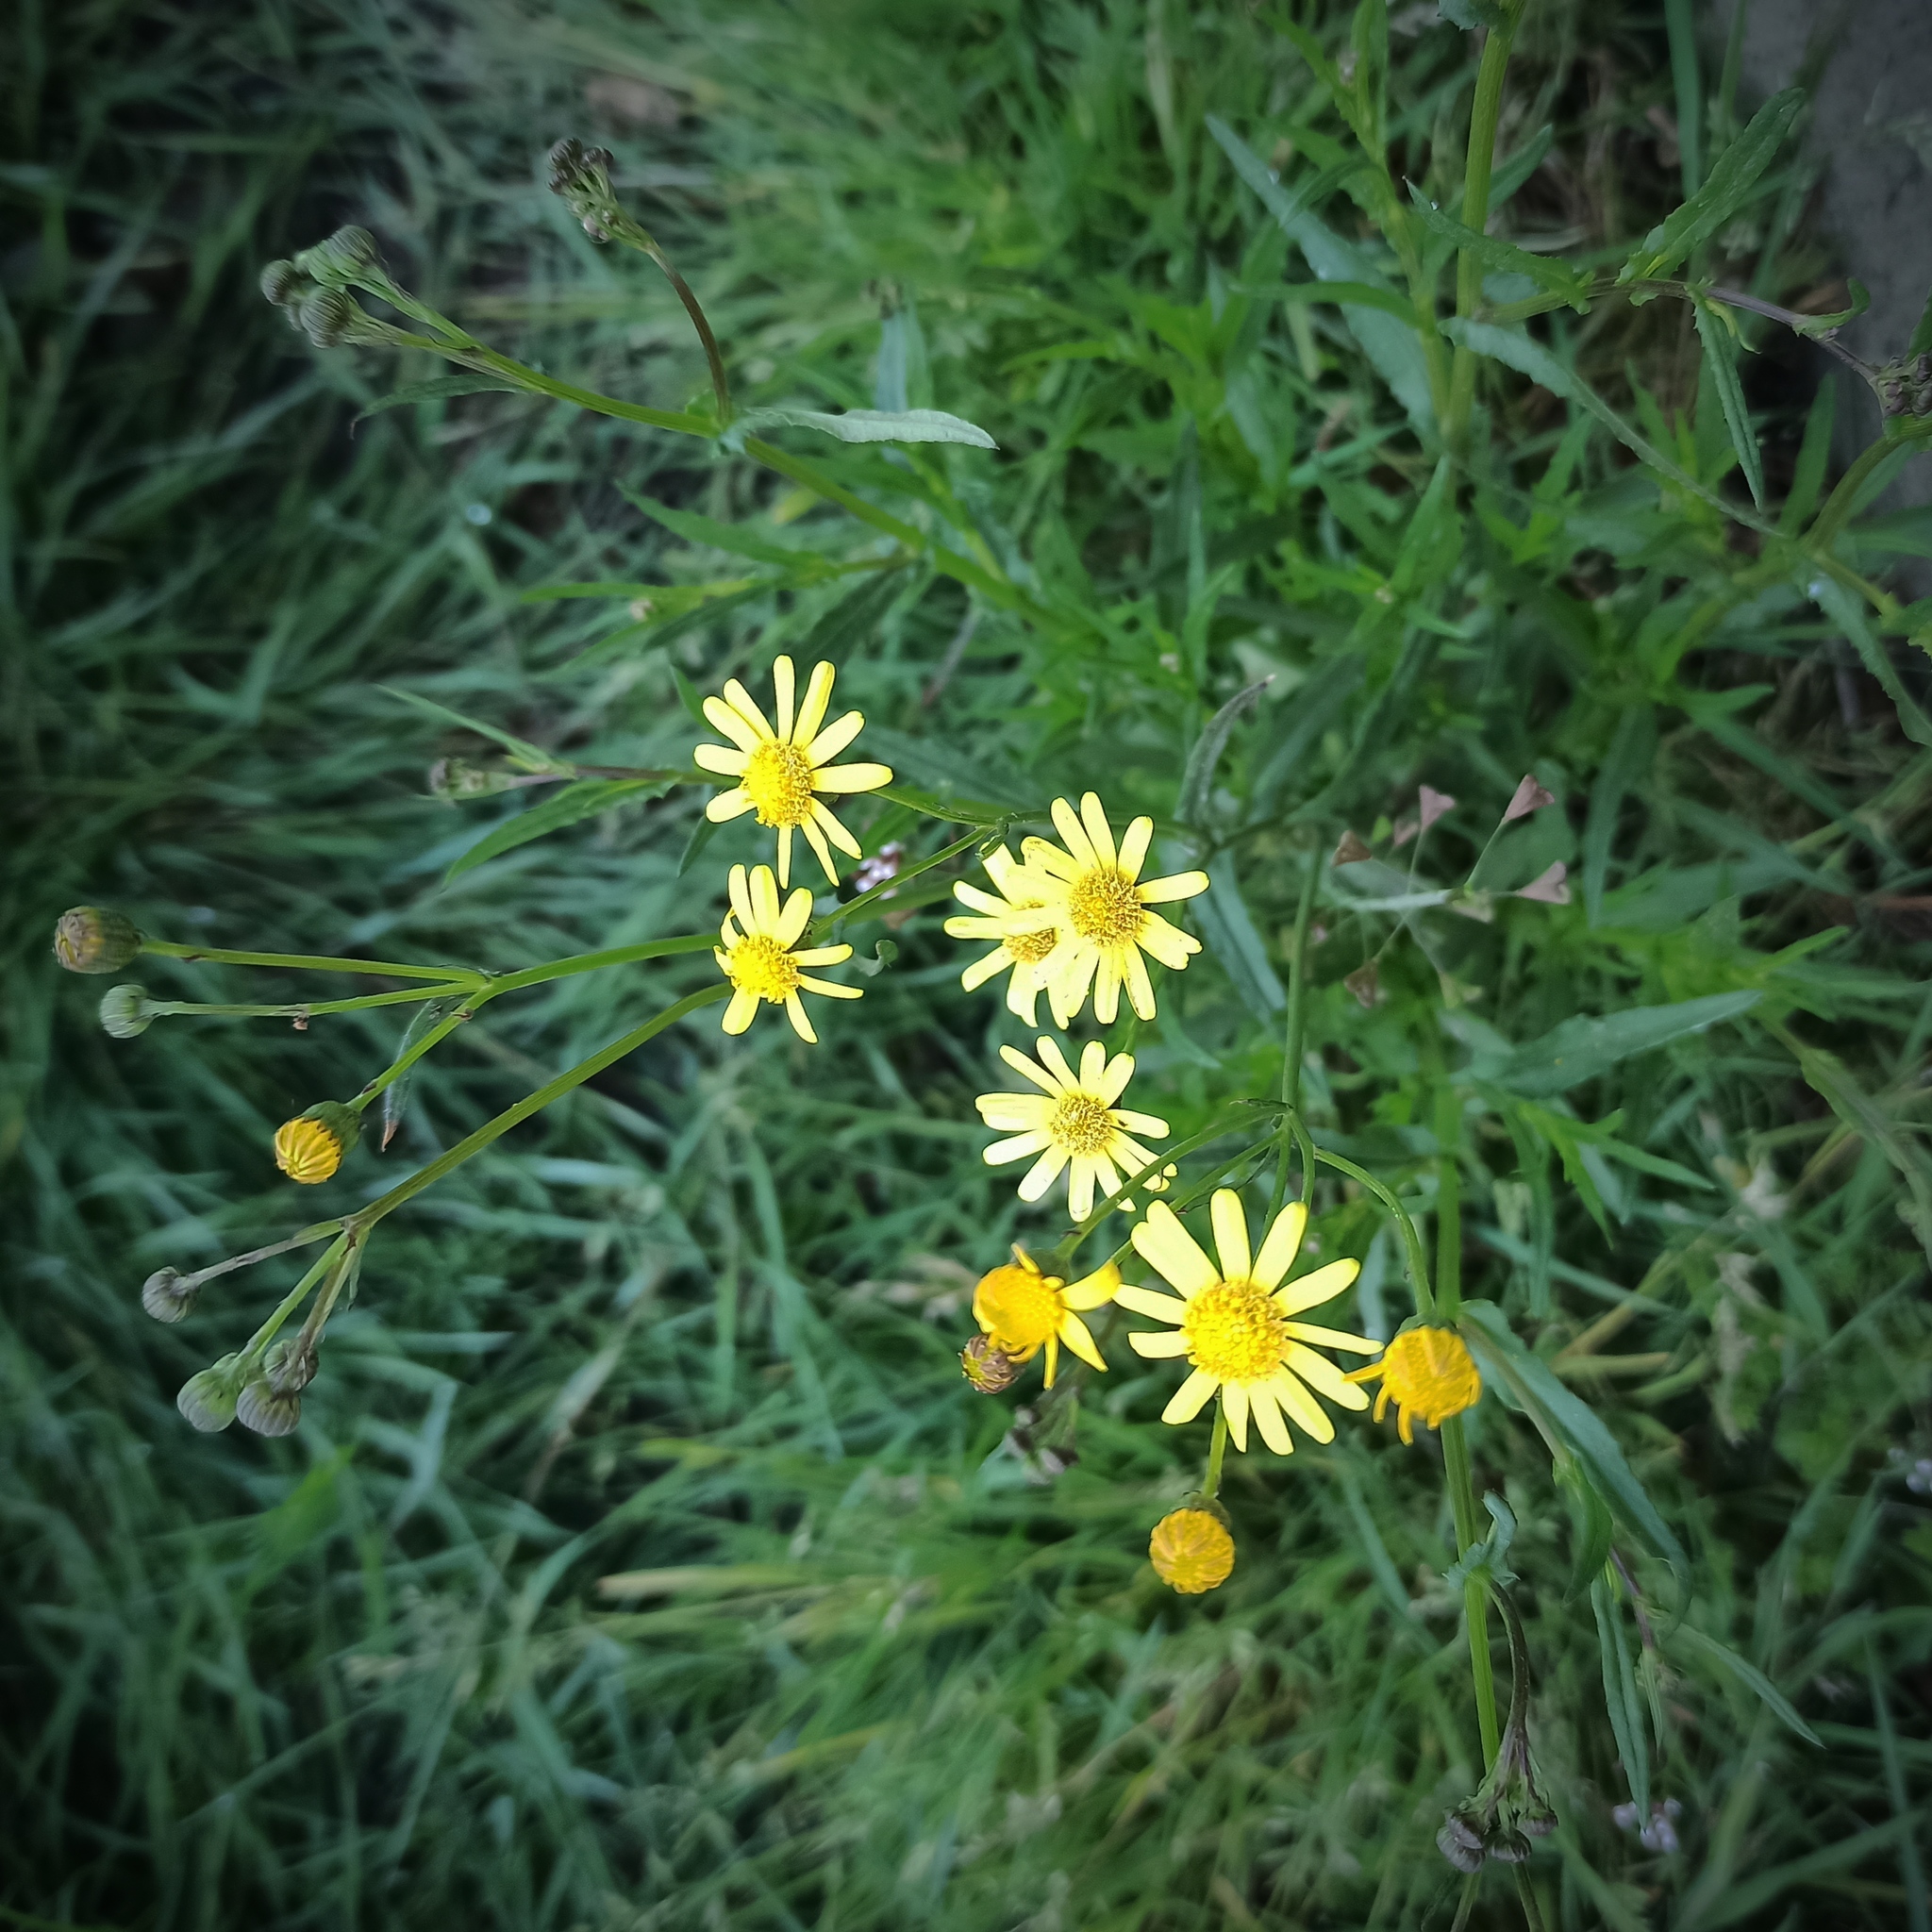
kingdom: Plantae
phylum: Tracheophyta
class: Magnoliopsida
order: Asterales
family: Asteraceae
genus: Senecio
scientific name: Senecio inaequidens
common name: Narrow-leaved ragwort
